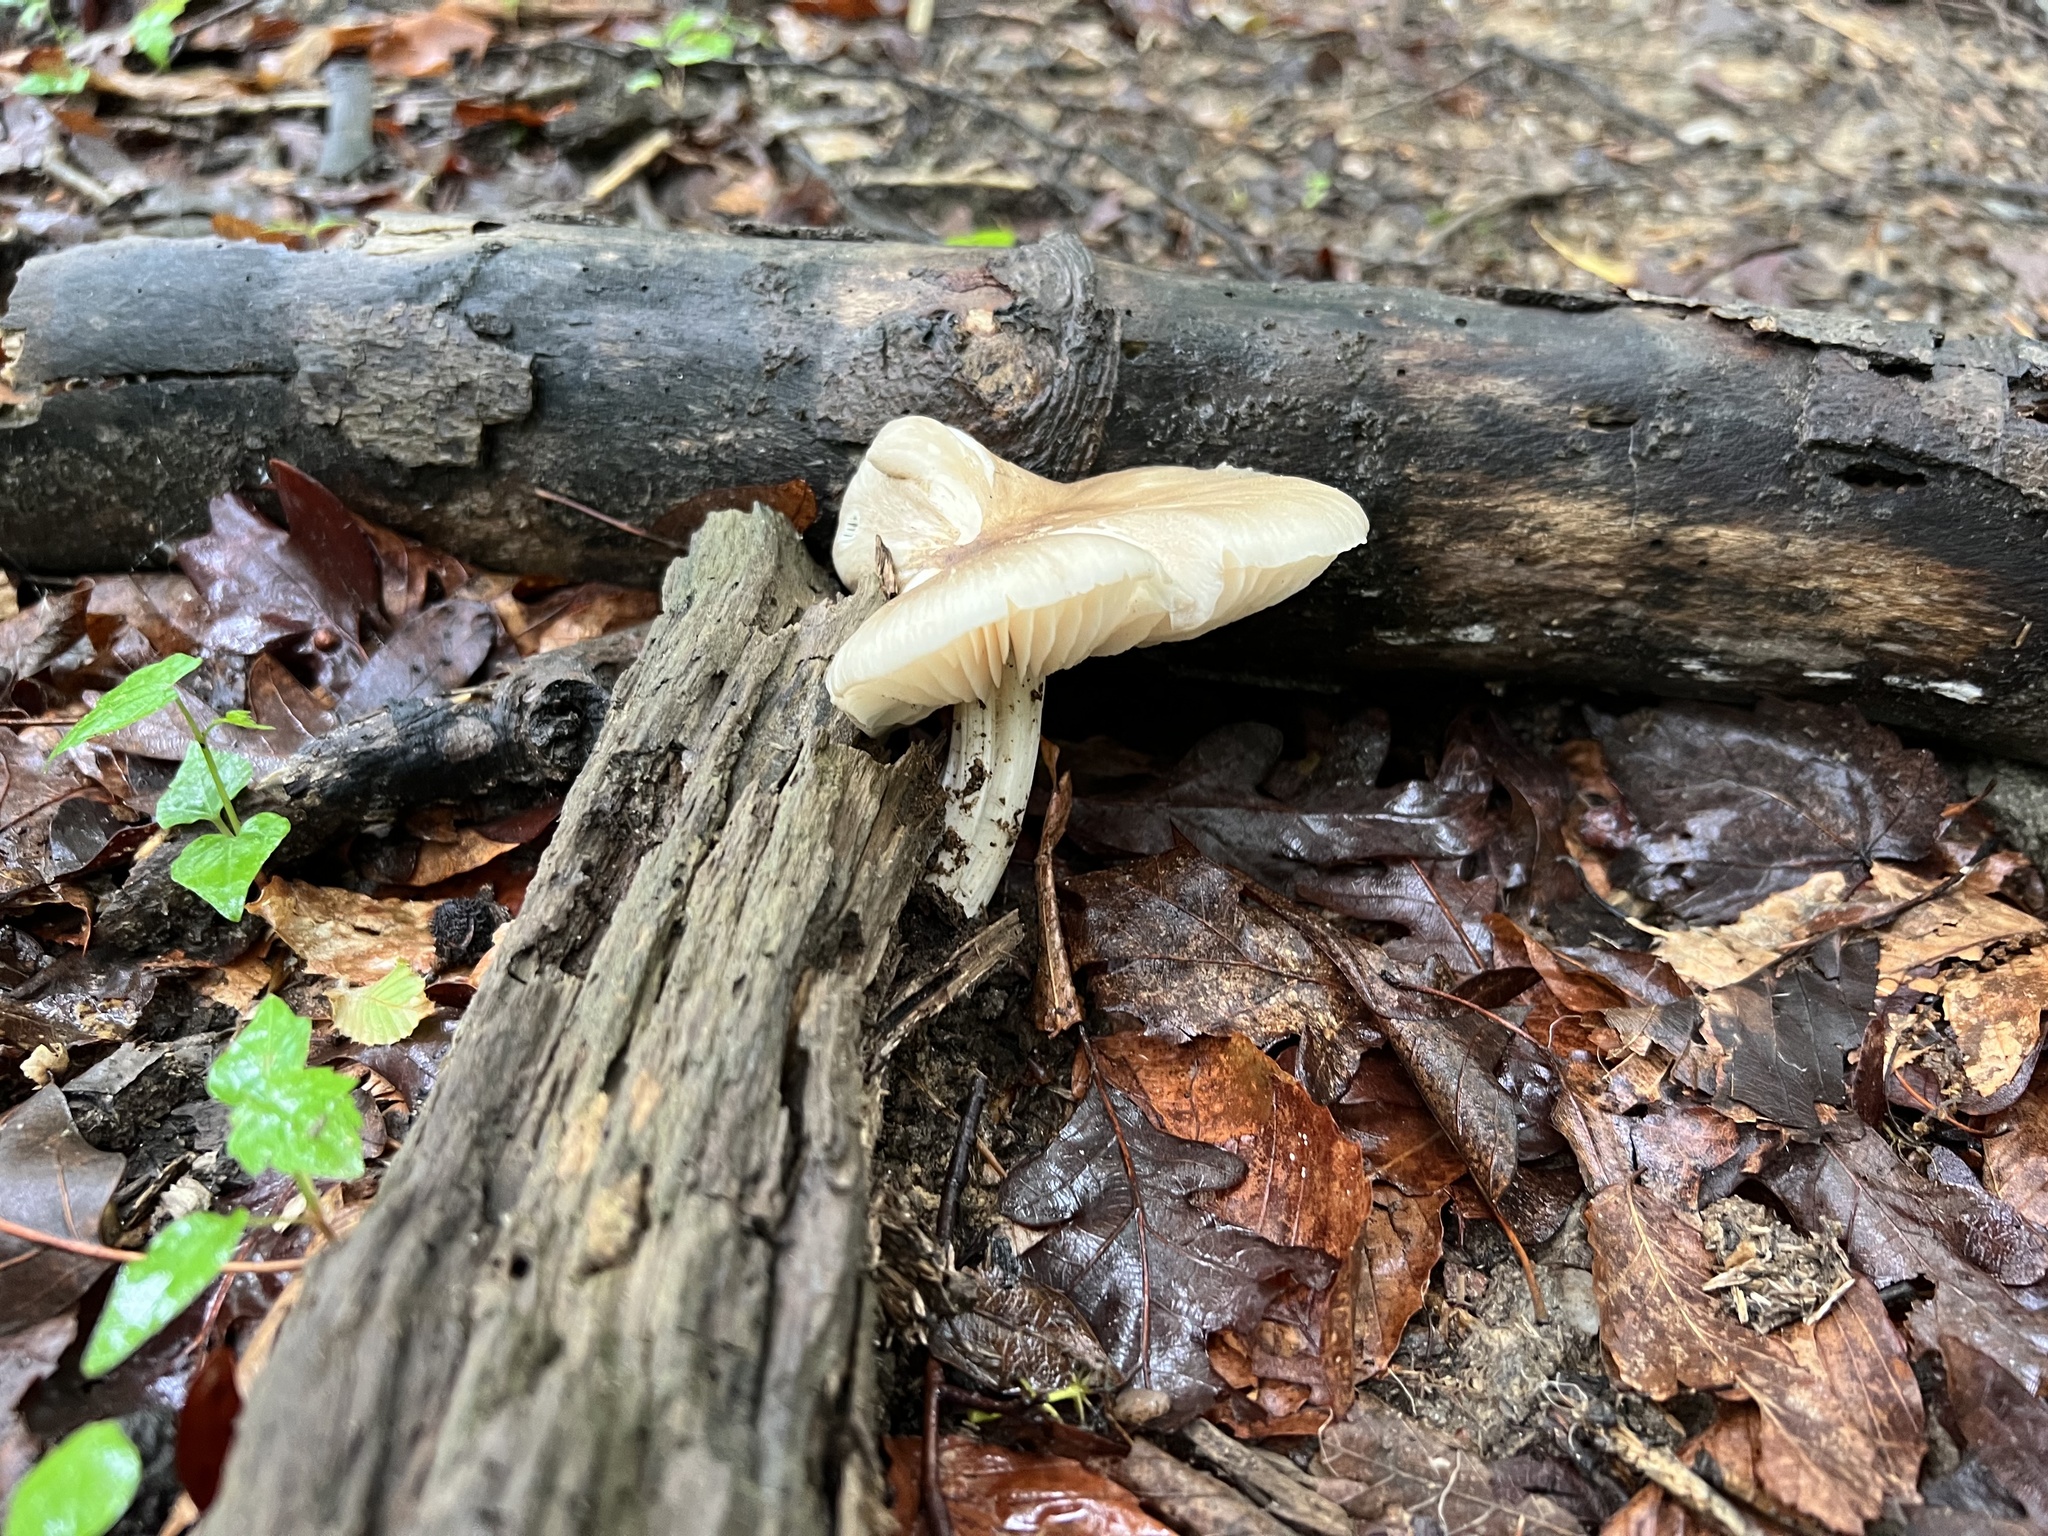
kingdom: Fungi
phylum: Basidiomycota
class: Agaricomycetes
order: Agaricales
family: Tricholomataceae
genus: Megacollybia
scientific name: Megacollybia rodmanii
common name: Eastern american platterful mushroom
